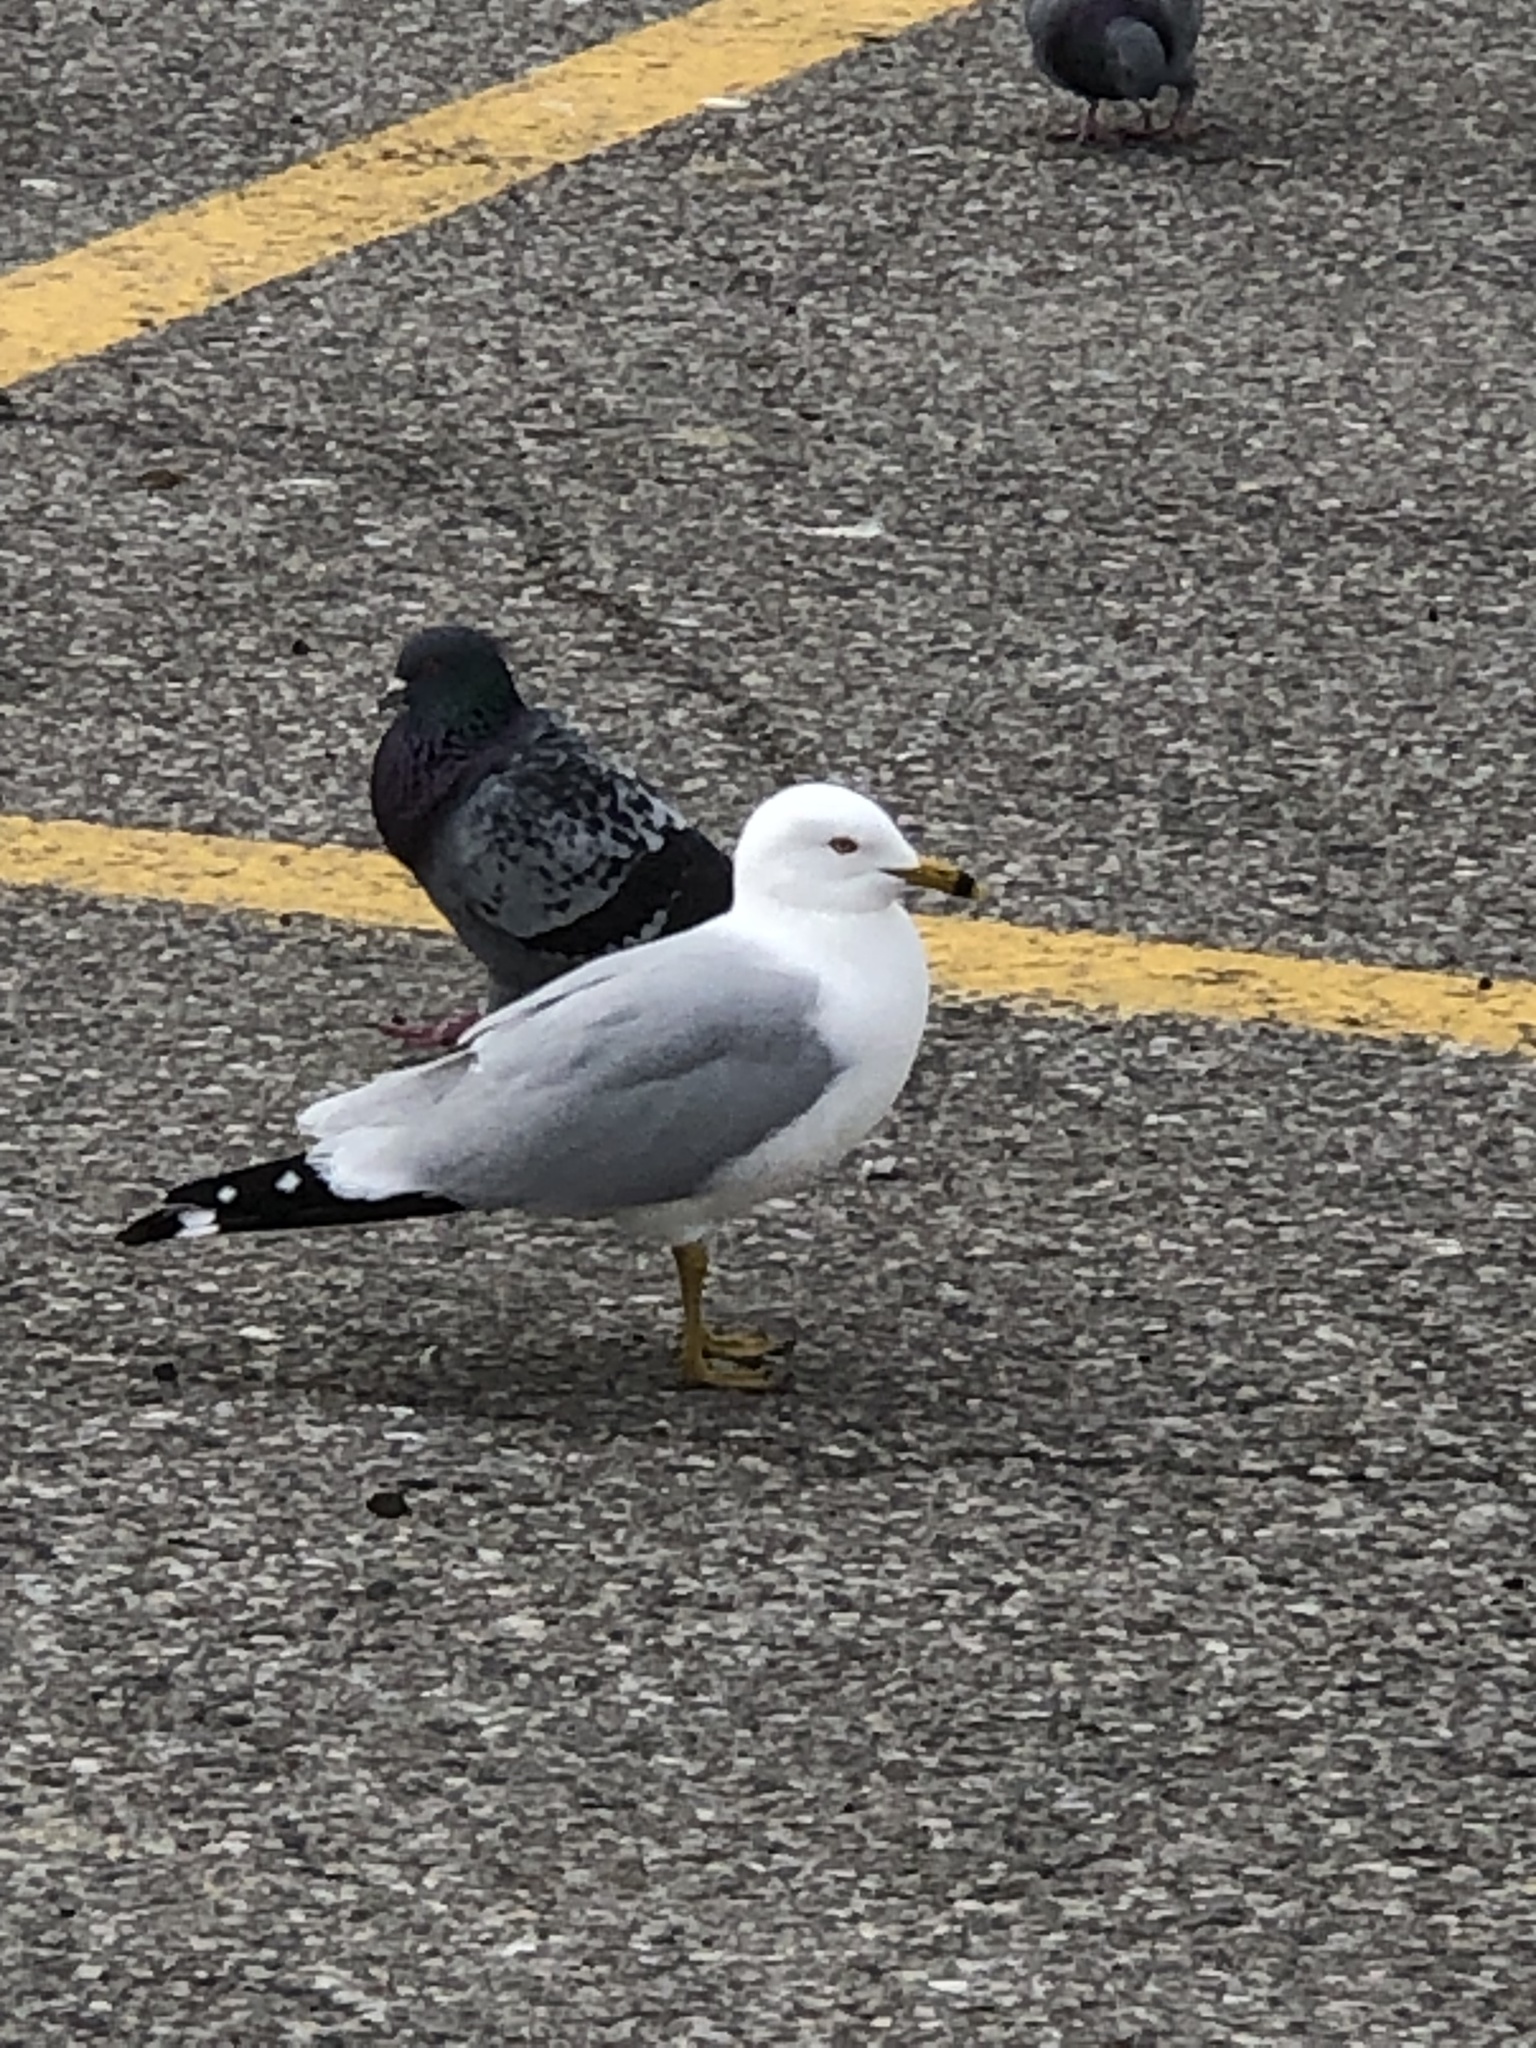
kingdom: Animalia
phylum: Chordata
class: Aves
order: Charadriiformes
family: Laridae
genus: Larus
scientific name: Larus delawarensis
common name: Ring-billed gull
